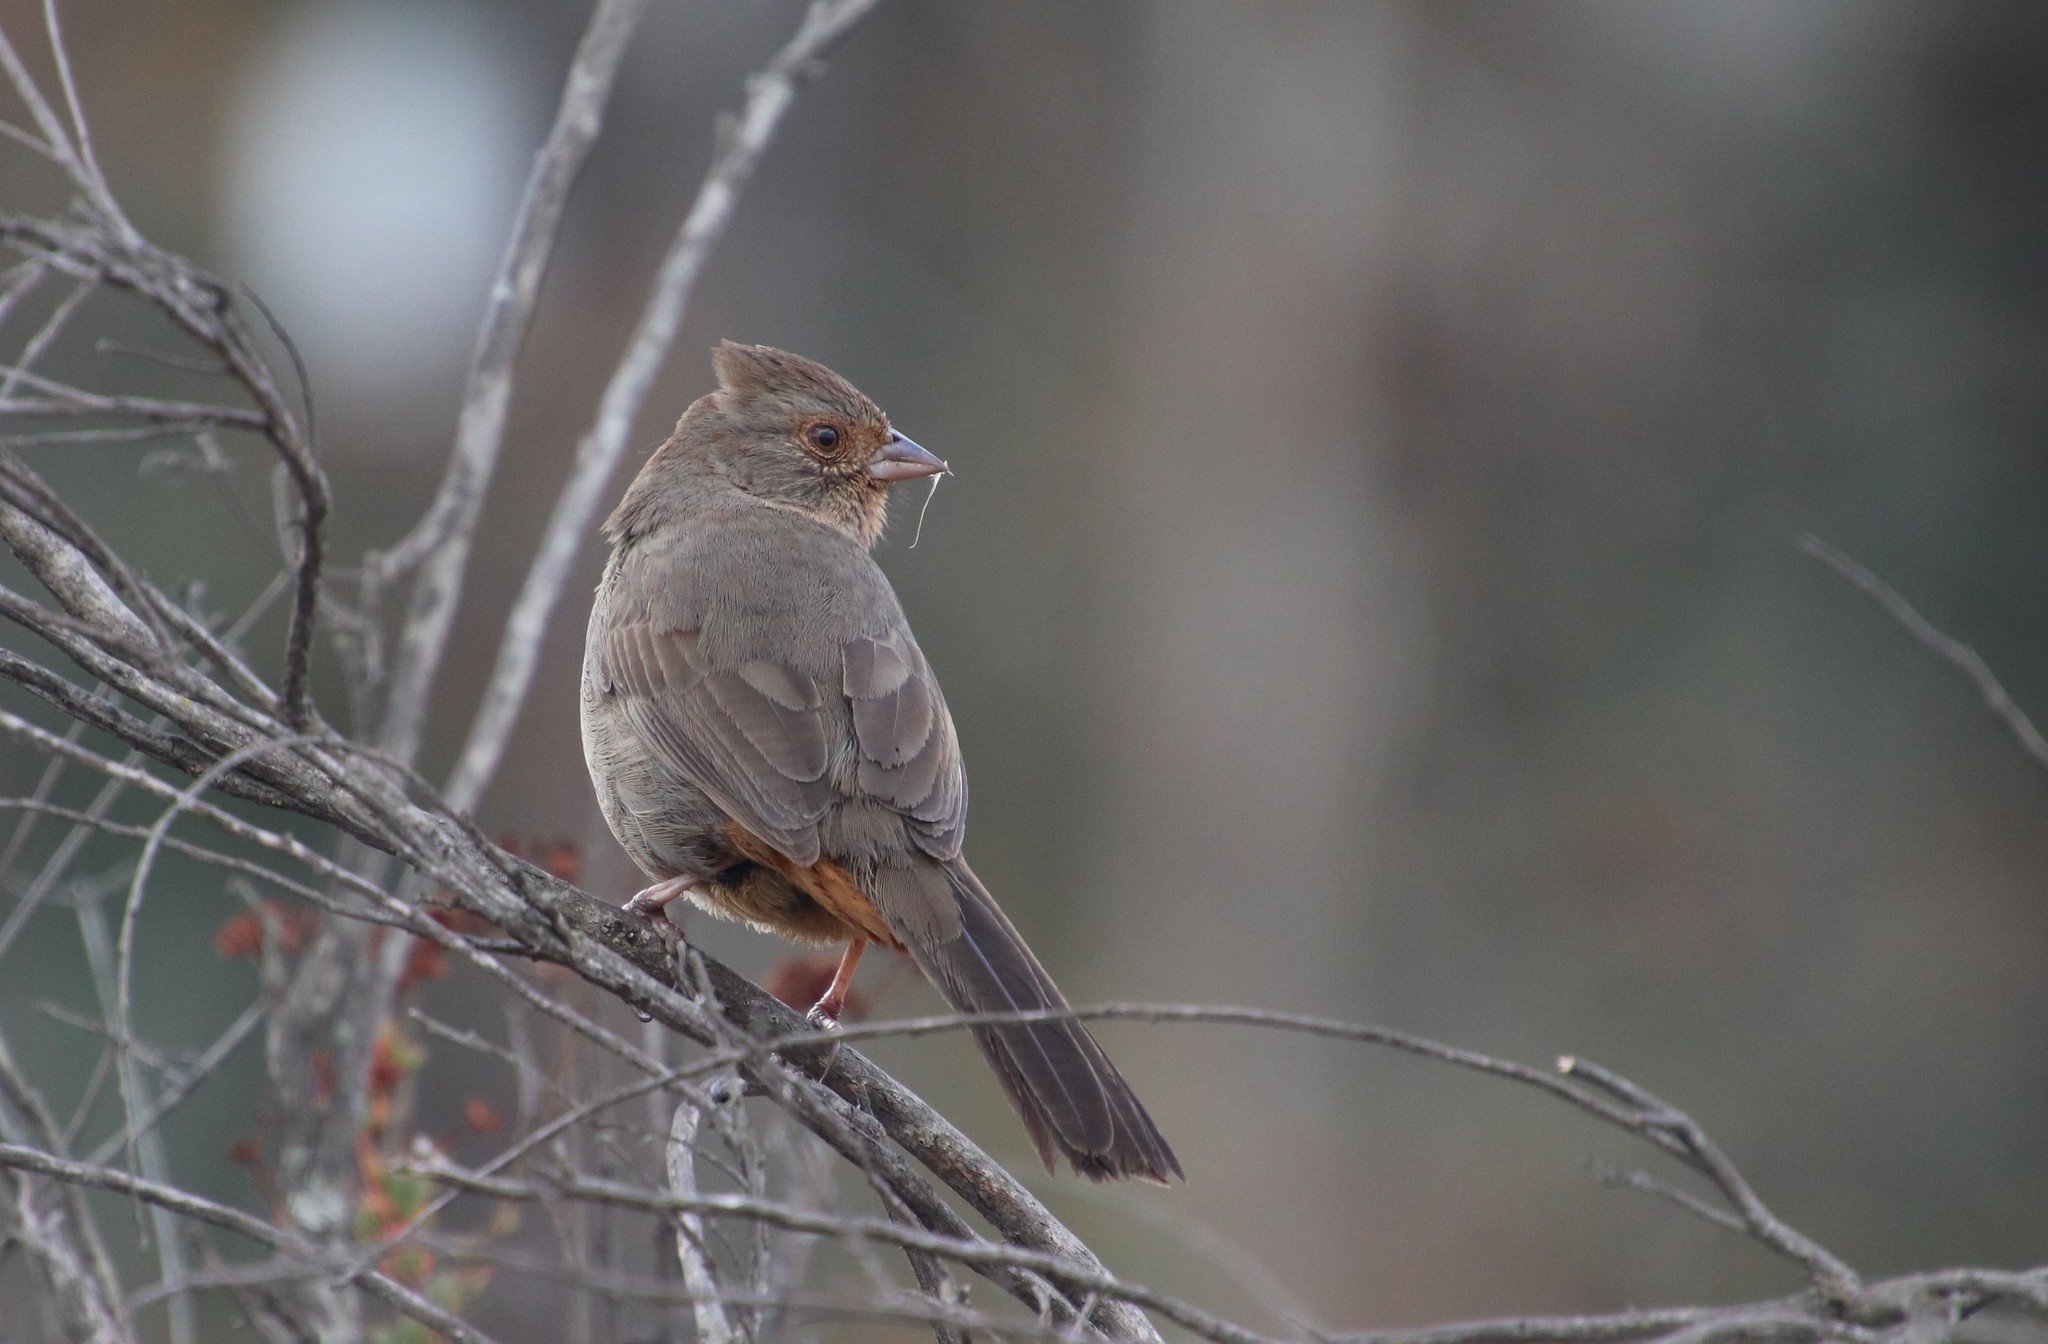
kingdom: Animalia
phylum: Chordata
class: Aves
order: Passeriformes
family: Passerellidae
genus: Melozone
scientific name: Melozone crissalis
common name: California towhee
